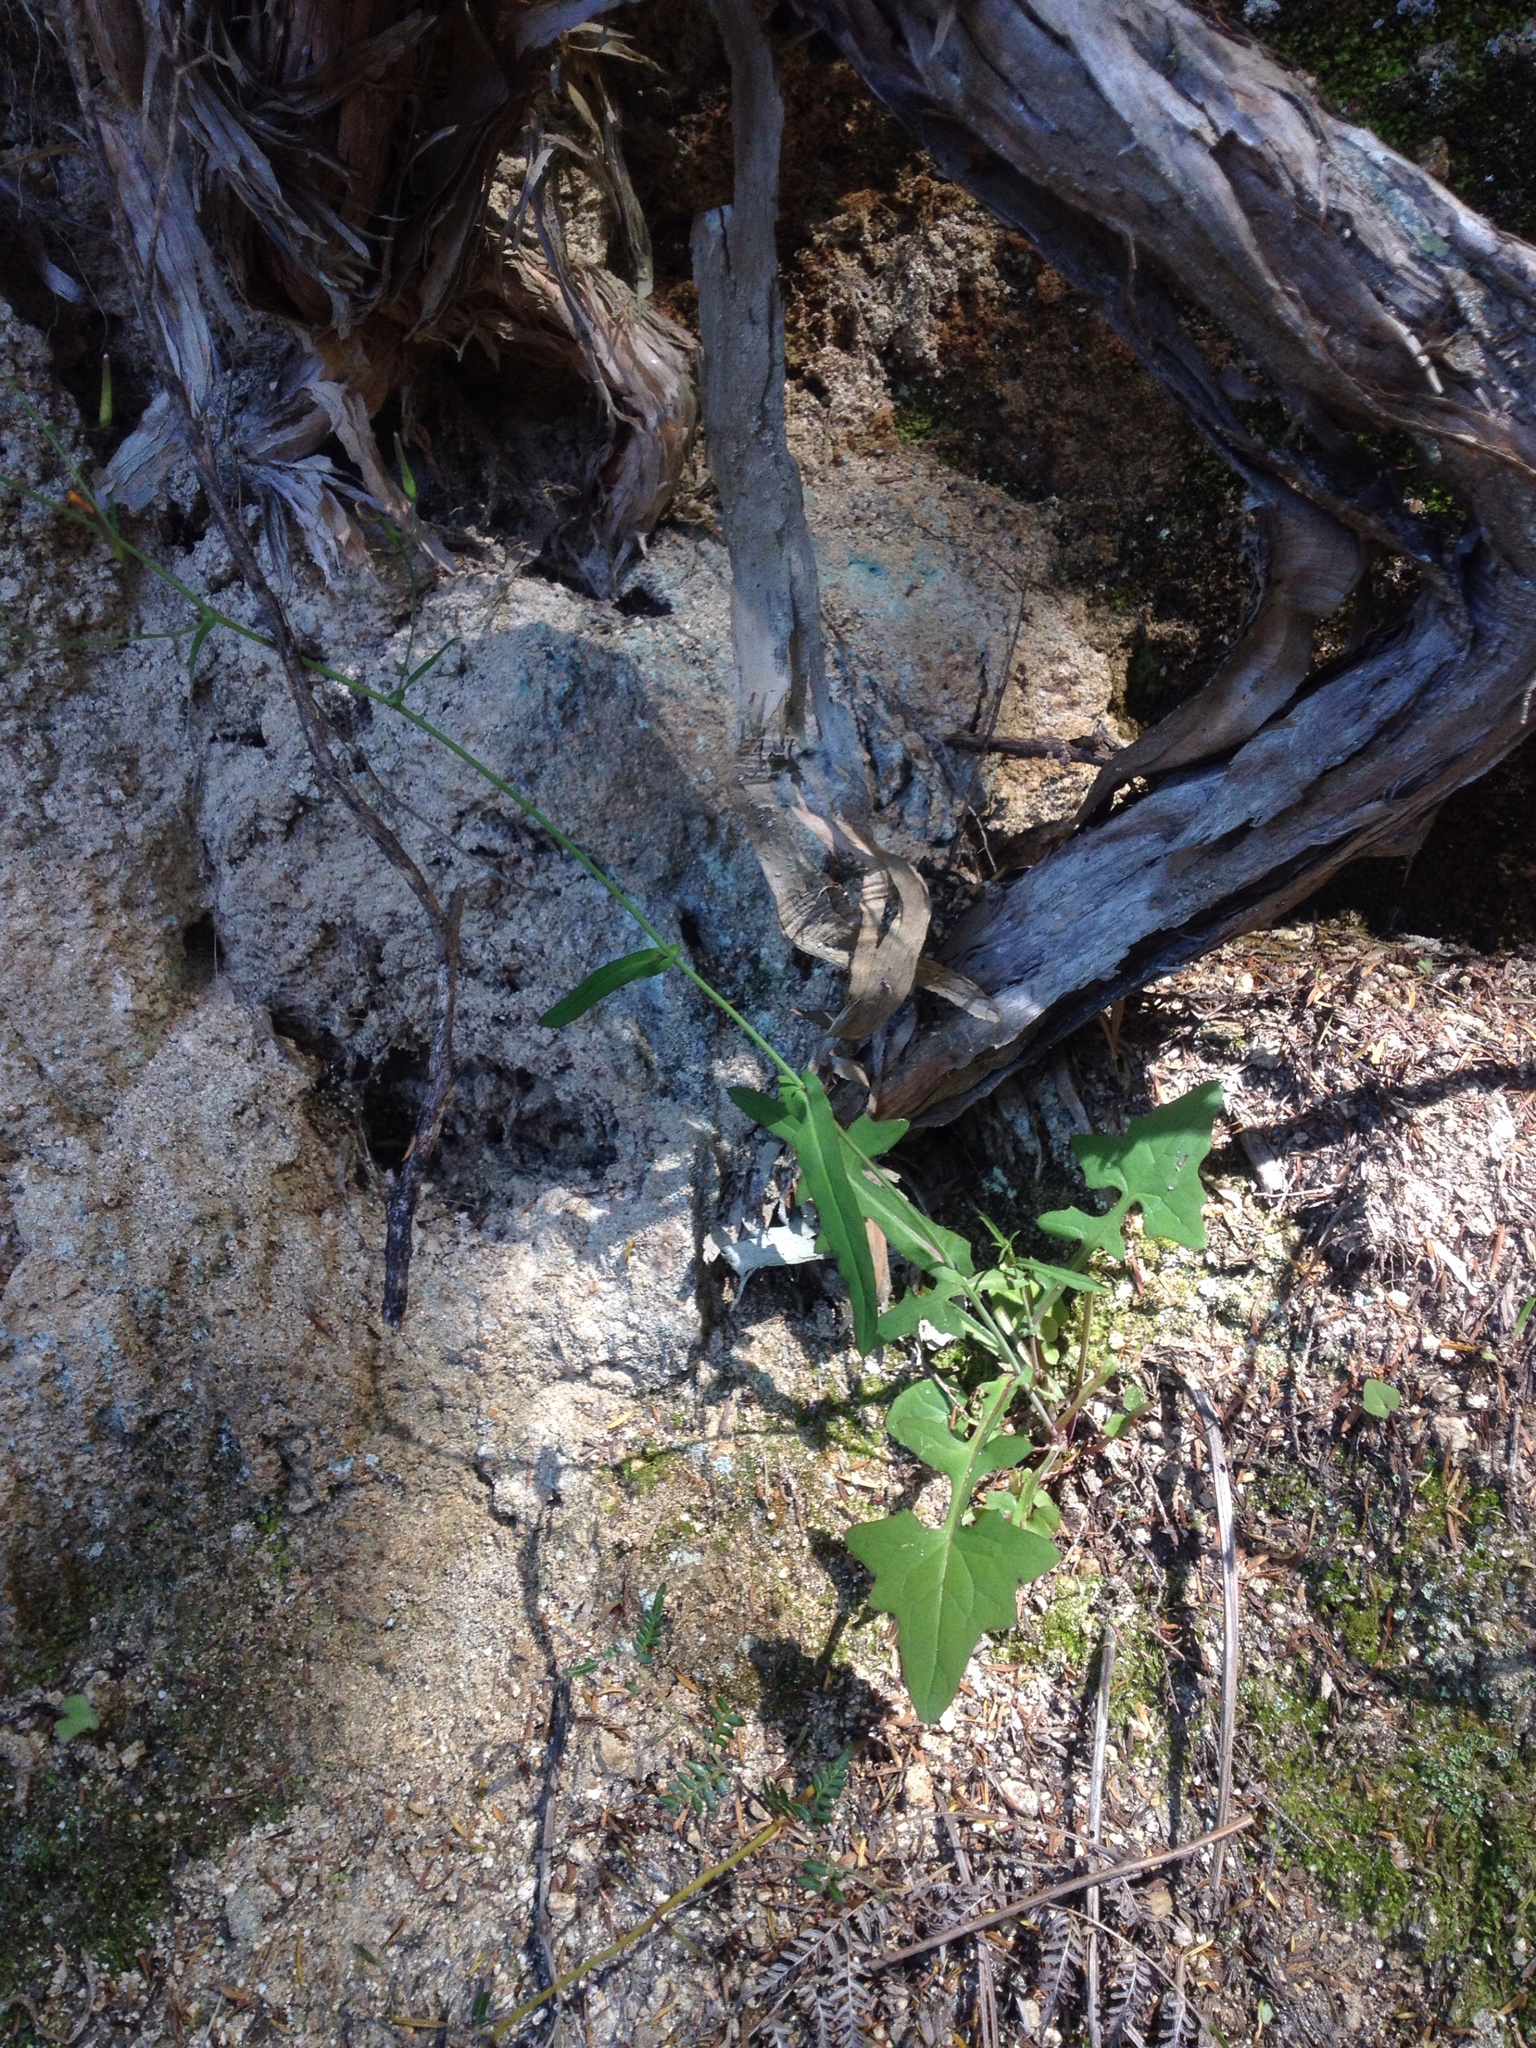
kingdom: Plantae
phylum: Tracheophyta
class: Magnoliopsida
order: Asterales
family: Asteraceae
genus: Mycelis
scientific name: Mycelis muralis
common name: Wall lettuce
